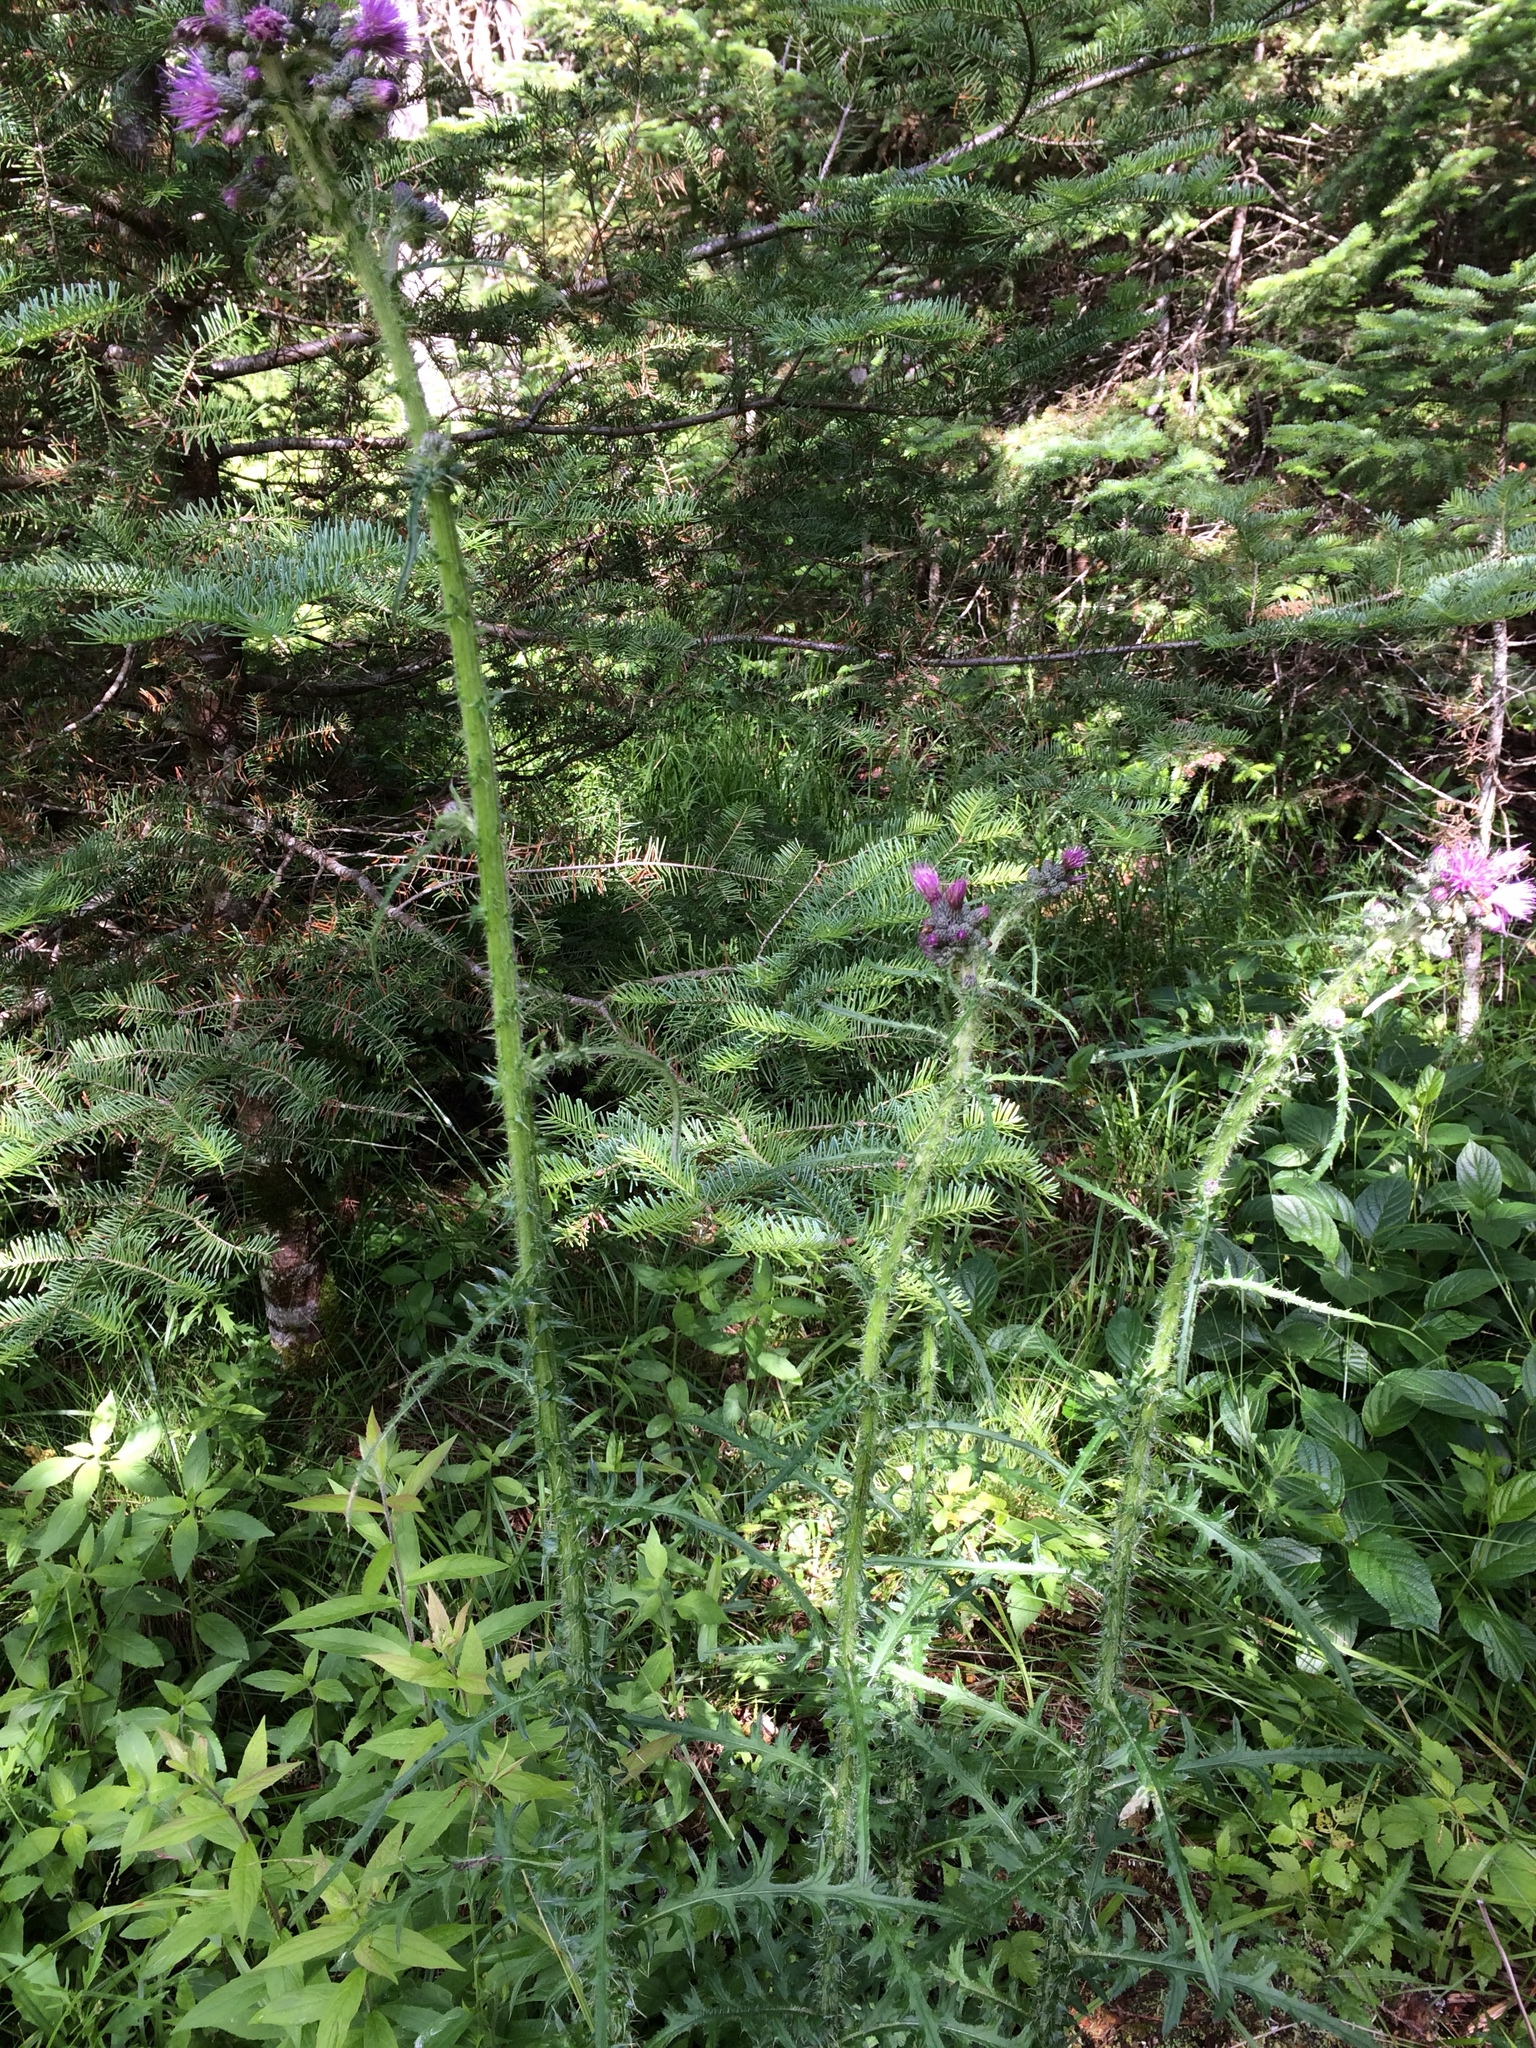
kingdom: Plantae
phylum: Tracheophyta
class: Magnoliopsida
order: Asterales
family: Asteraceae
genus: Cirsium
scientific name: Cirsium palustre
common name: Marsh thistle
